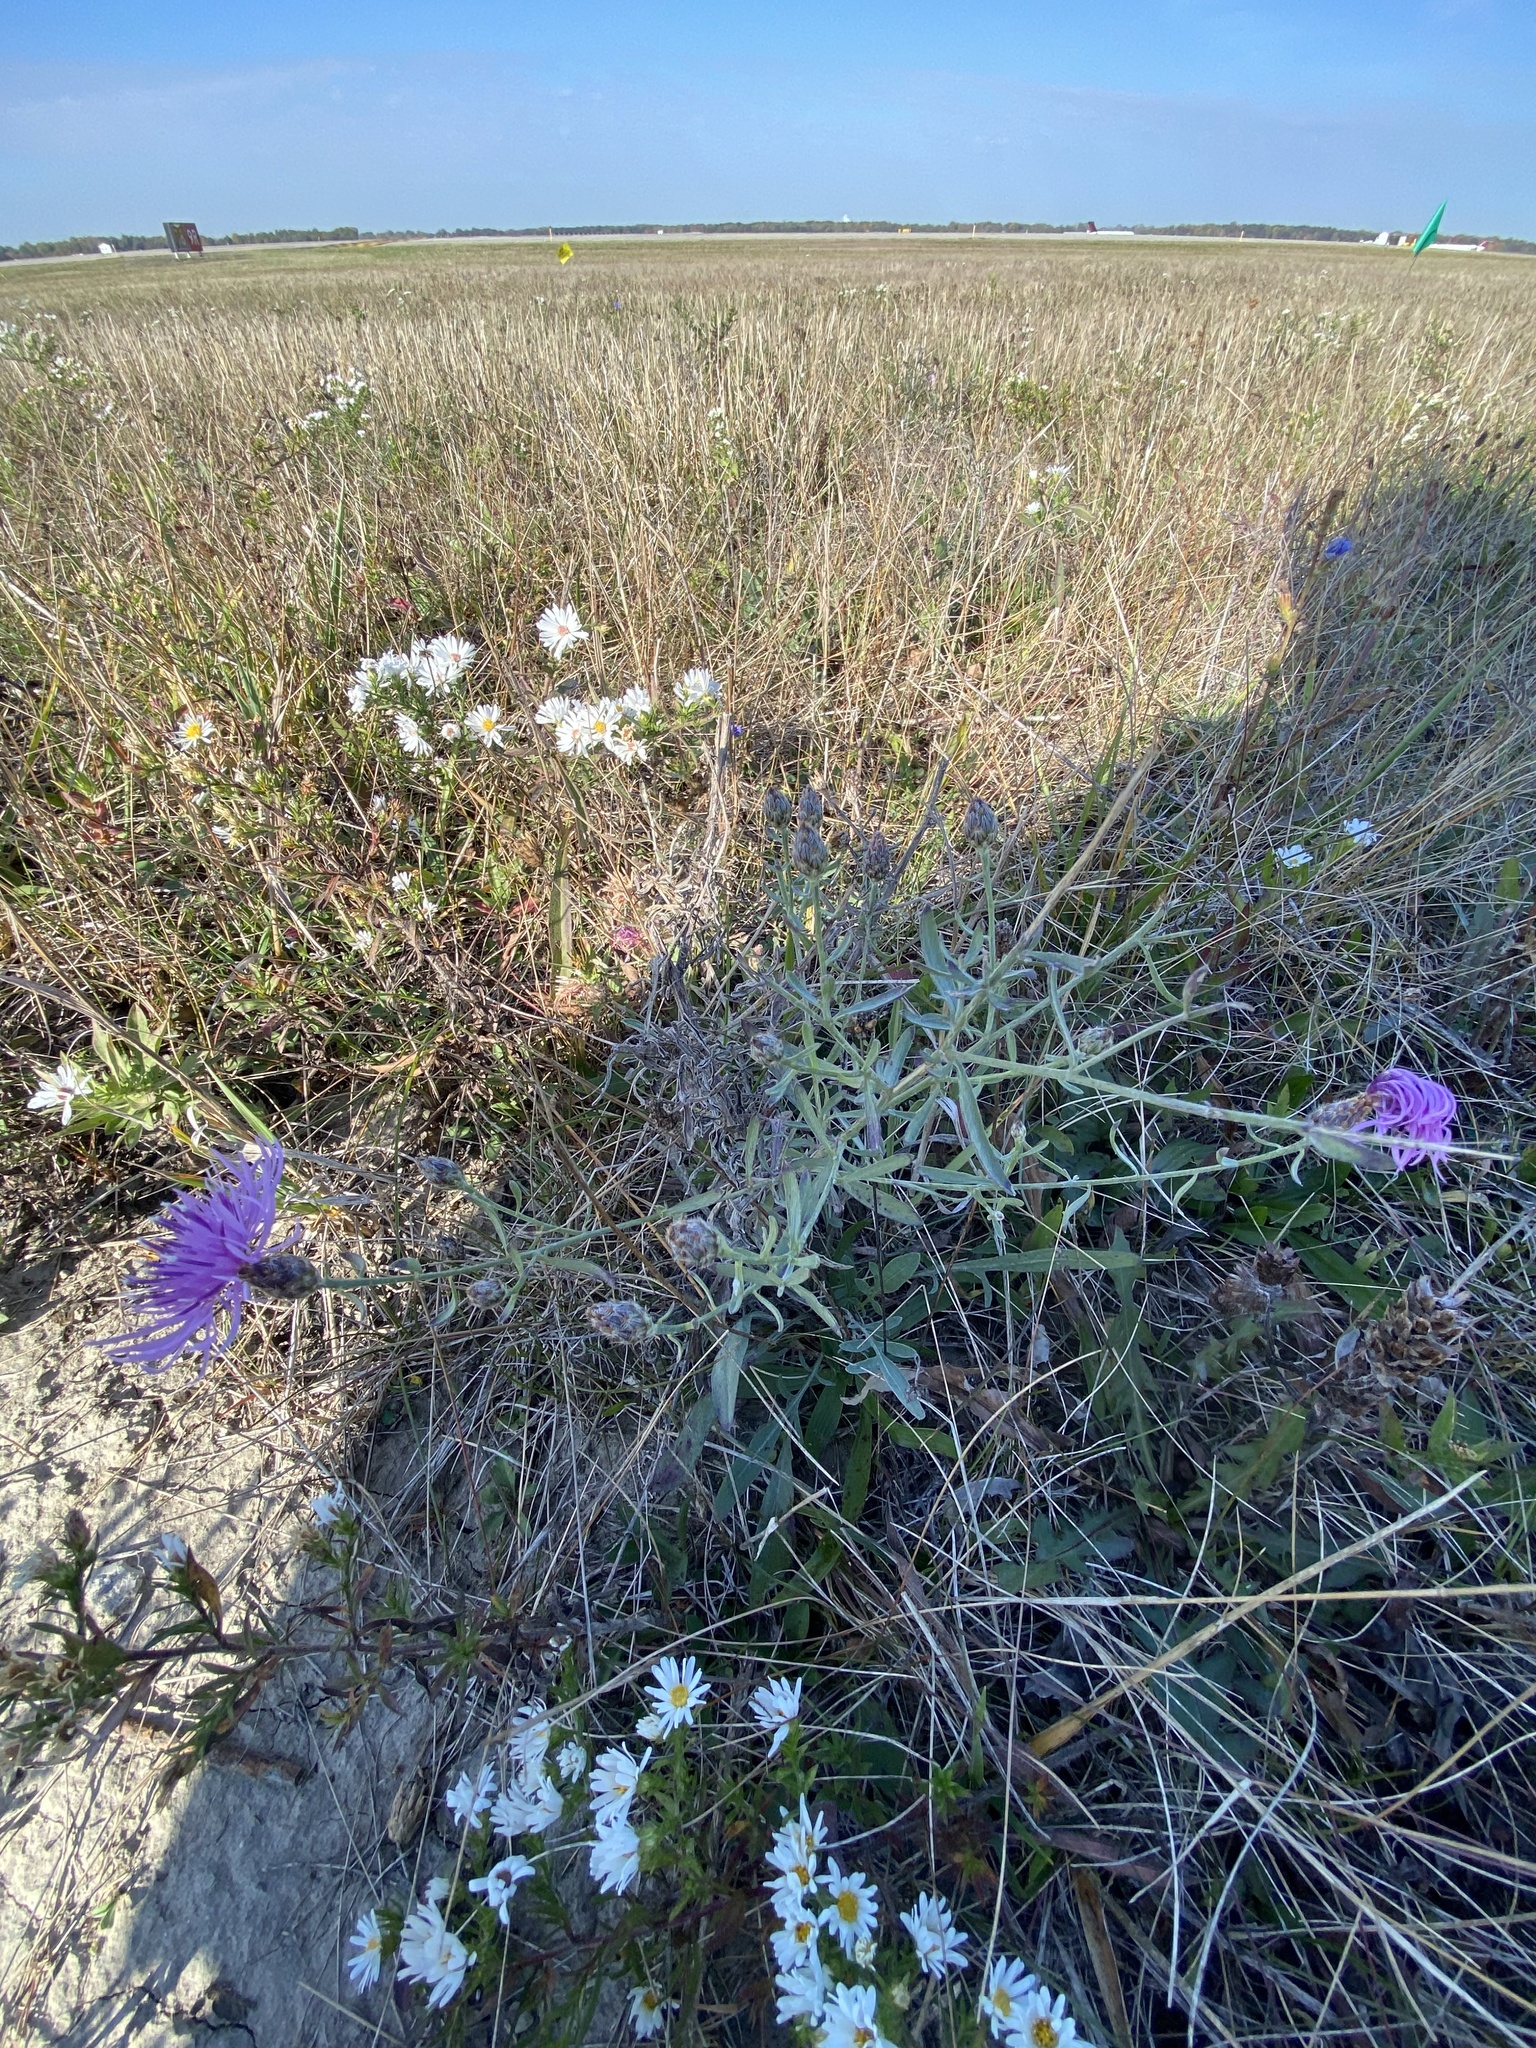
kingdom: Plantae
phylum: Tracheophyta
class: Magnoliopsida
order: Asterales
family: Asteraceae
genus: Centaurea
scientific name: Centaurea stoebe
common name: Spotted knapweed
